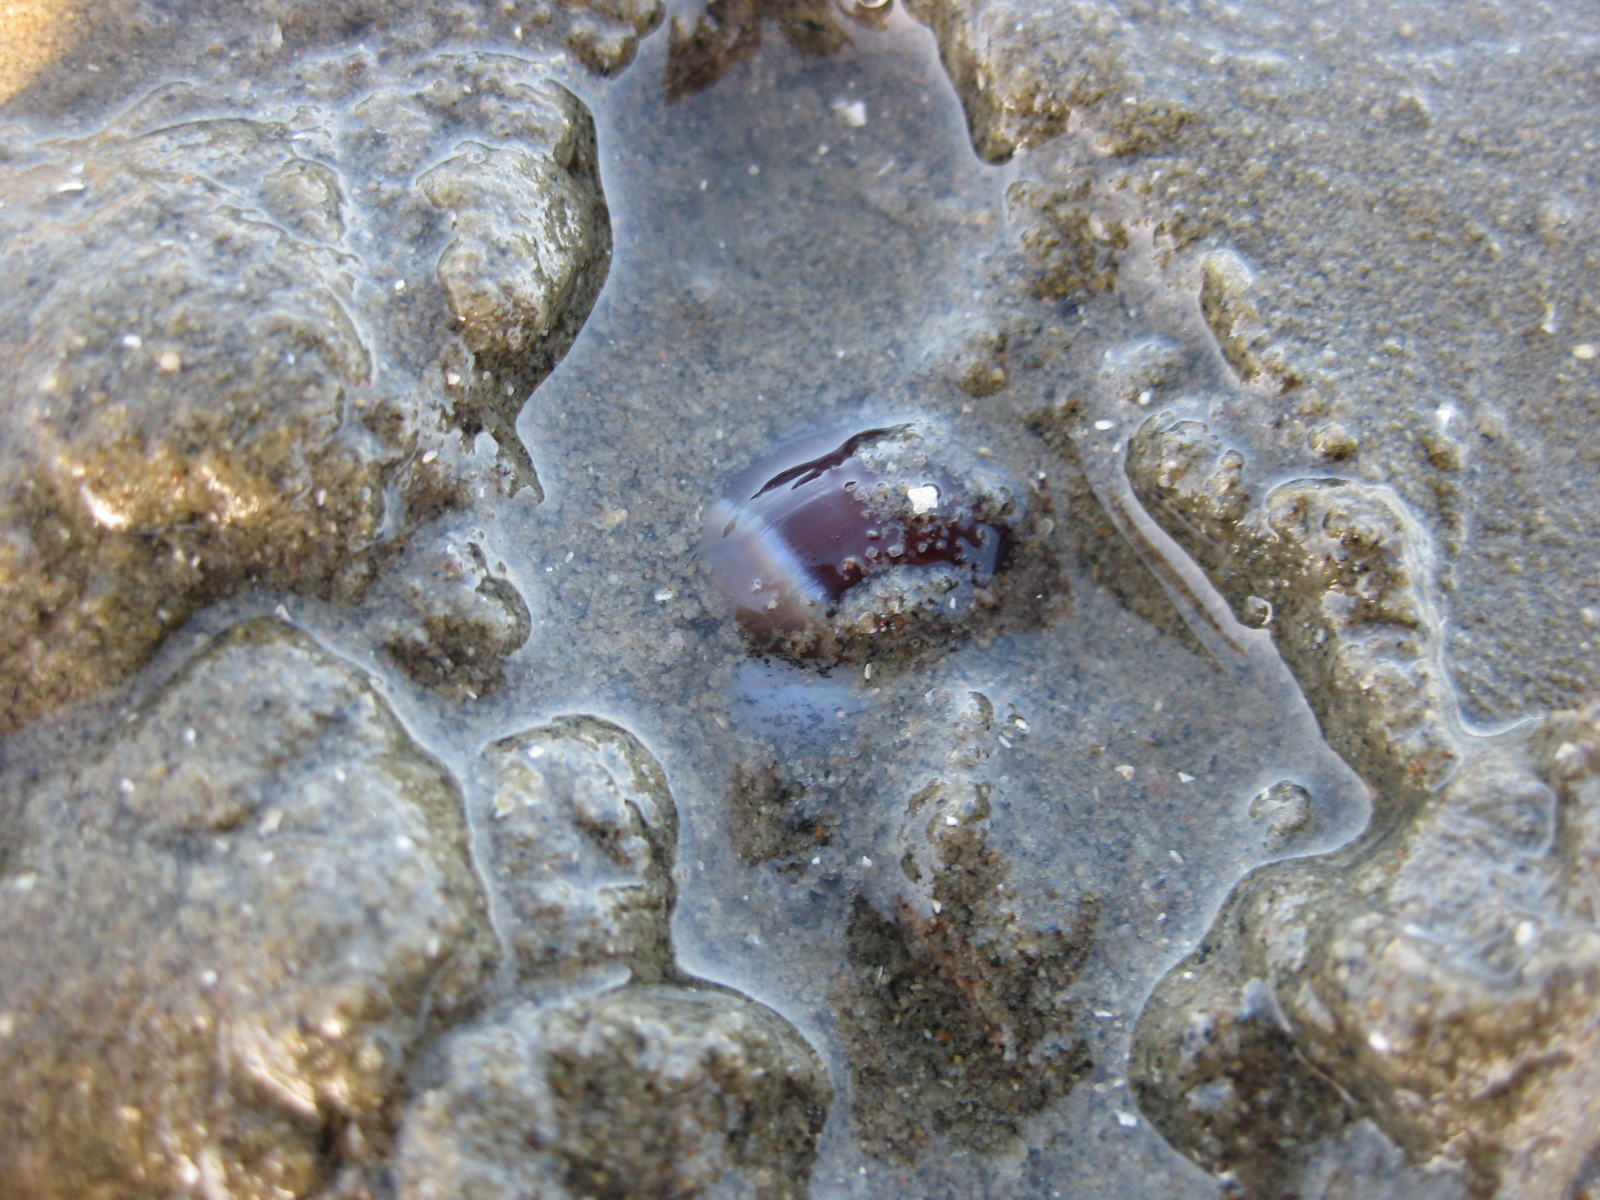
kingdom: Animalia
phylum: Mollusca
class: Gastropoda
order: Neogastropoda
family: Ancillariidae
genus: Amalda
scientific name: Amalda australis
